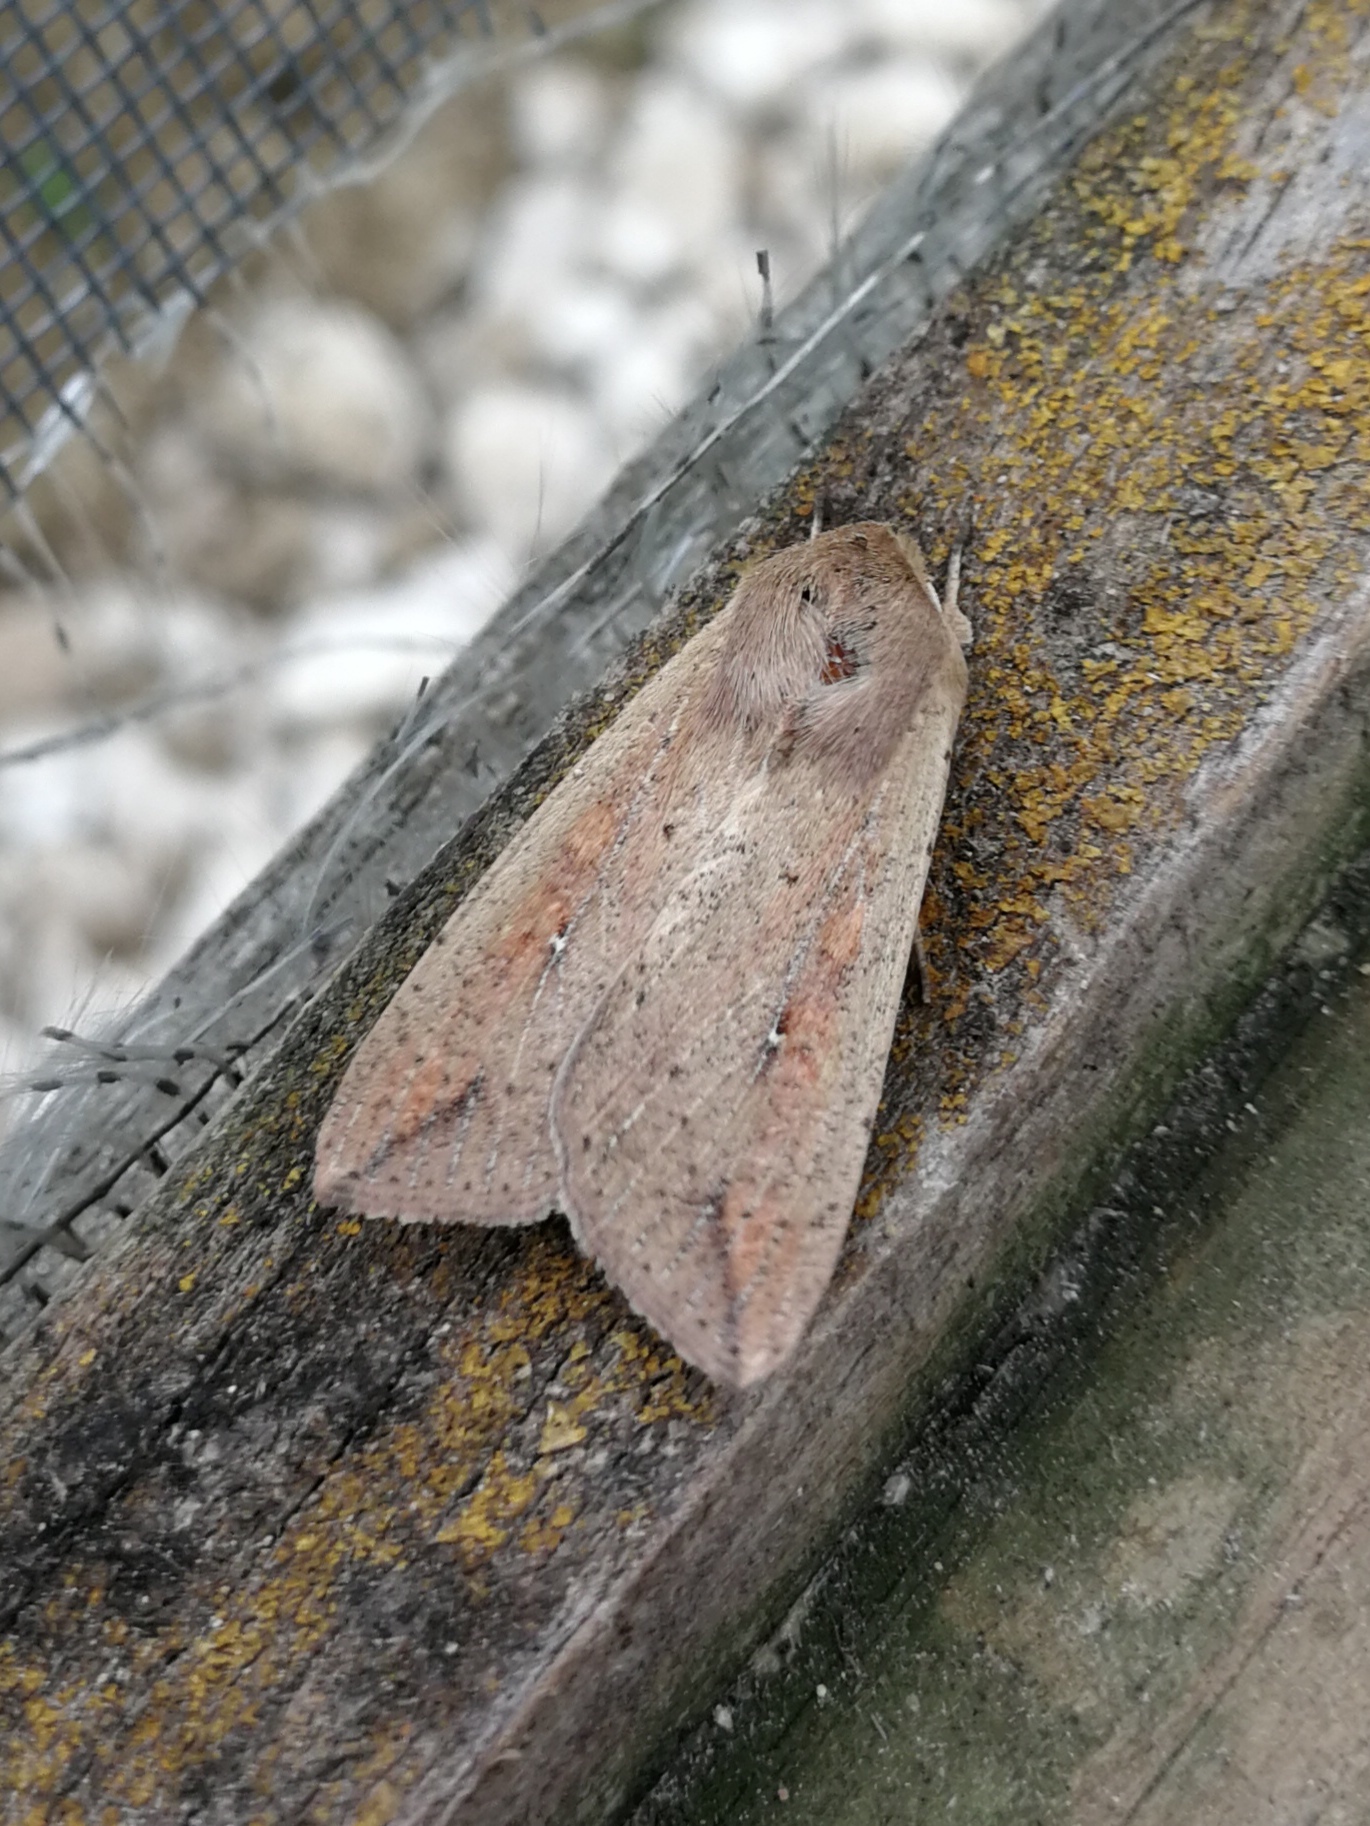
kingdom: Animalia
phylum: Arthropoda
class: Insecta
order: Lepidoptera
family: Noctuidae
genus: Mythimna
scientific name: Mythimna unipuncta
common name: White-speck
